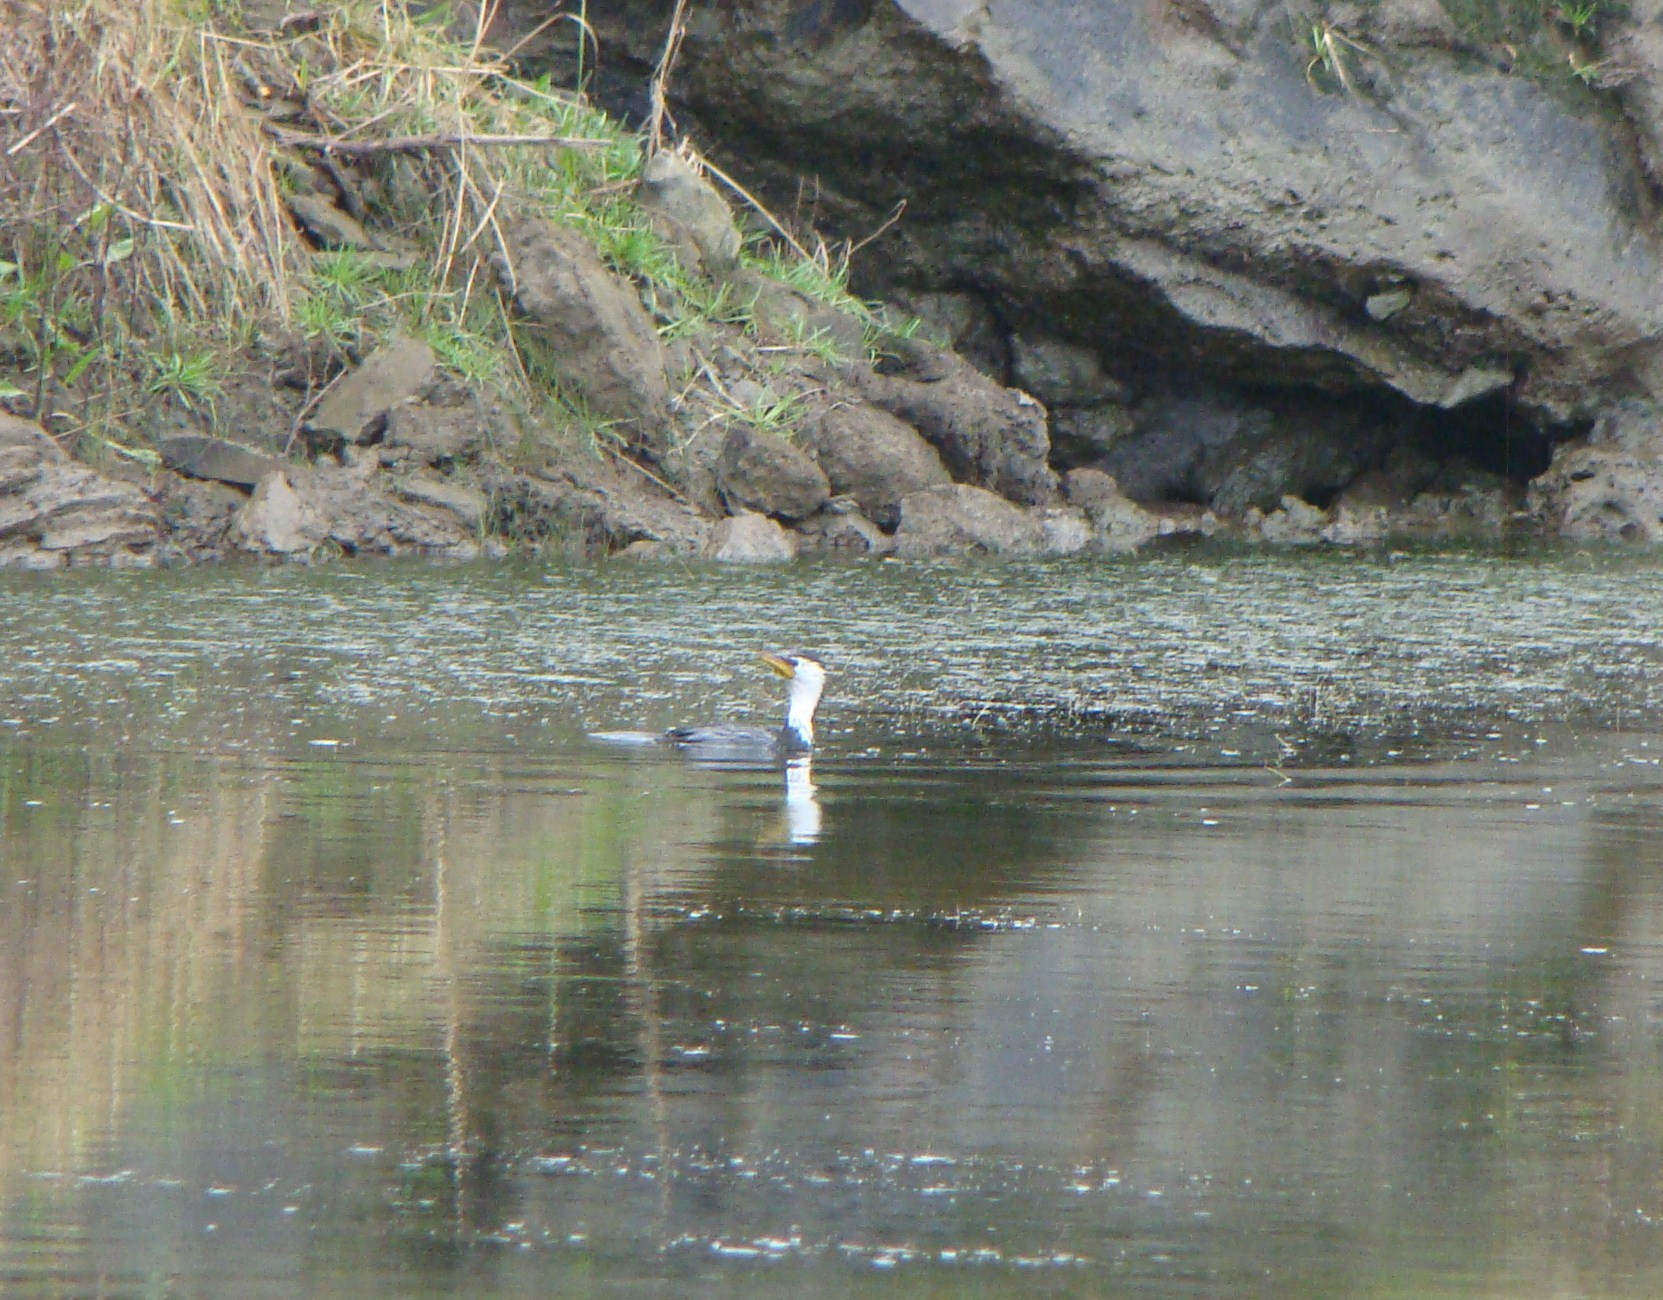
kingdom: Animalia
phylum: Chordata
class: Aves
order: Suliformes
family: Phalacrocoracidae
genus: Microcarbo
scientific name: Microcarbo melanoleucos
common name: Little pied cormorant
